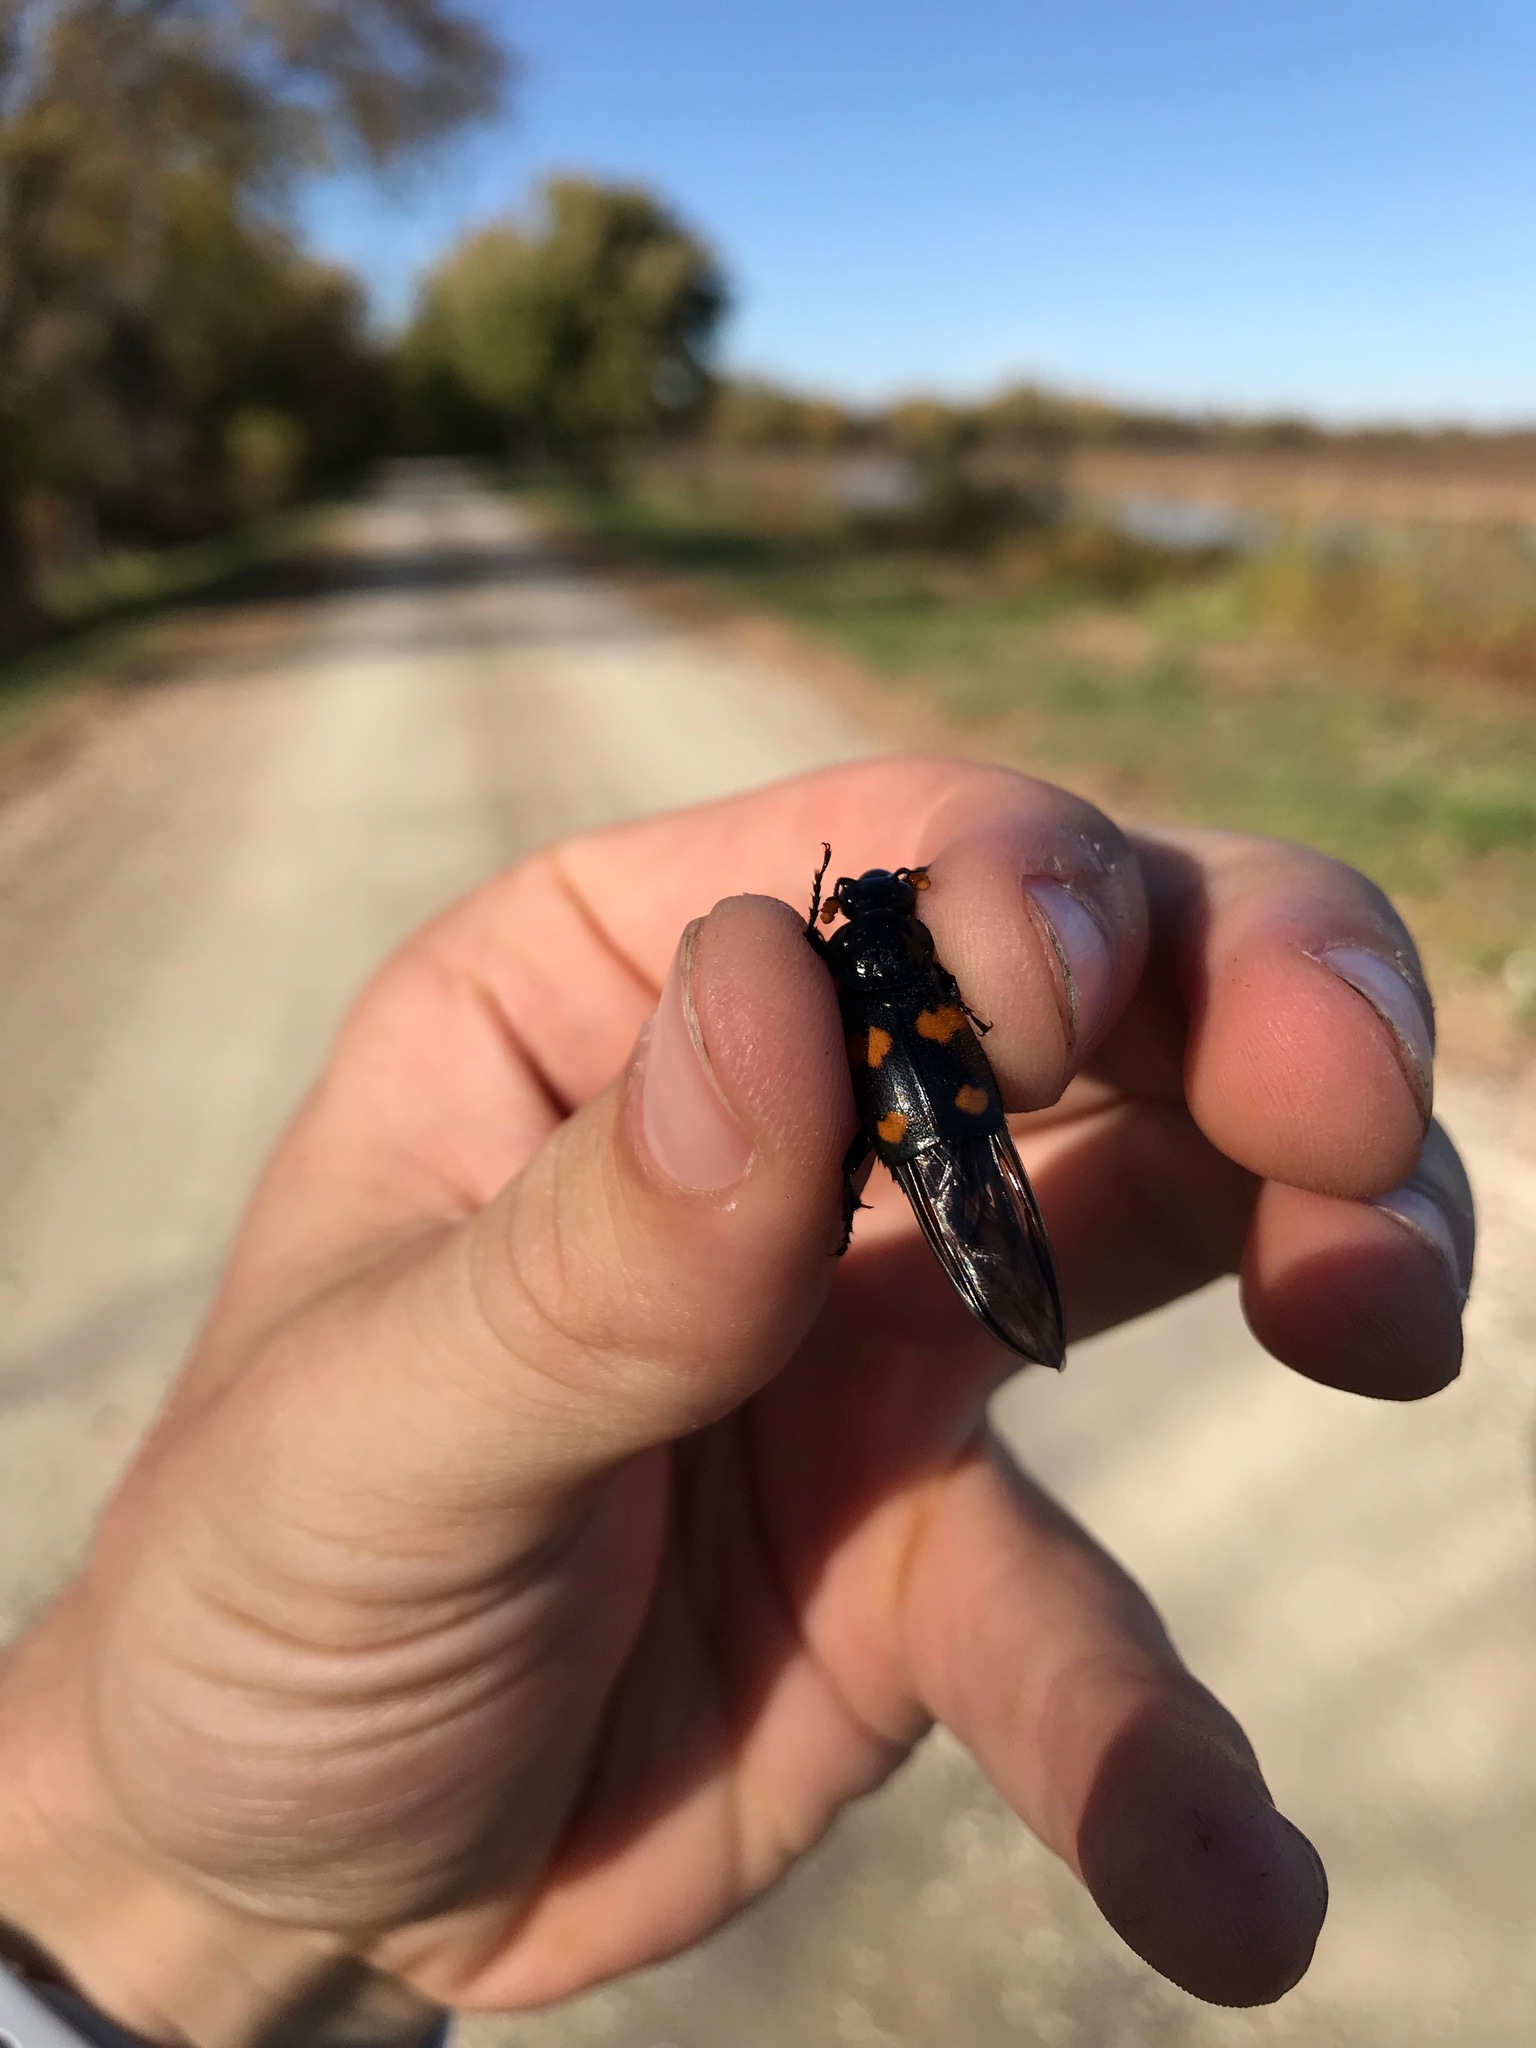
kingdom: Animalia
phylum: Arthropoda
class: Insecta
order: Coleoptera
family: Staphylinidae
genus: Nicrophorus
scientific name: Nicrophorus orbicollis
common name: Roundneck sexton beetle
